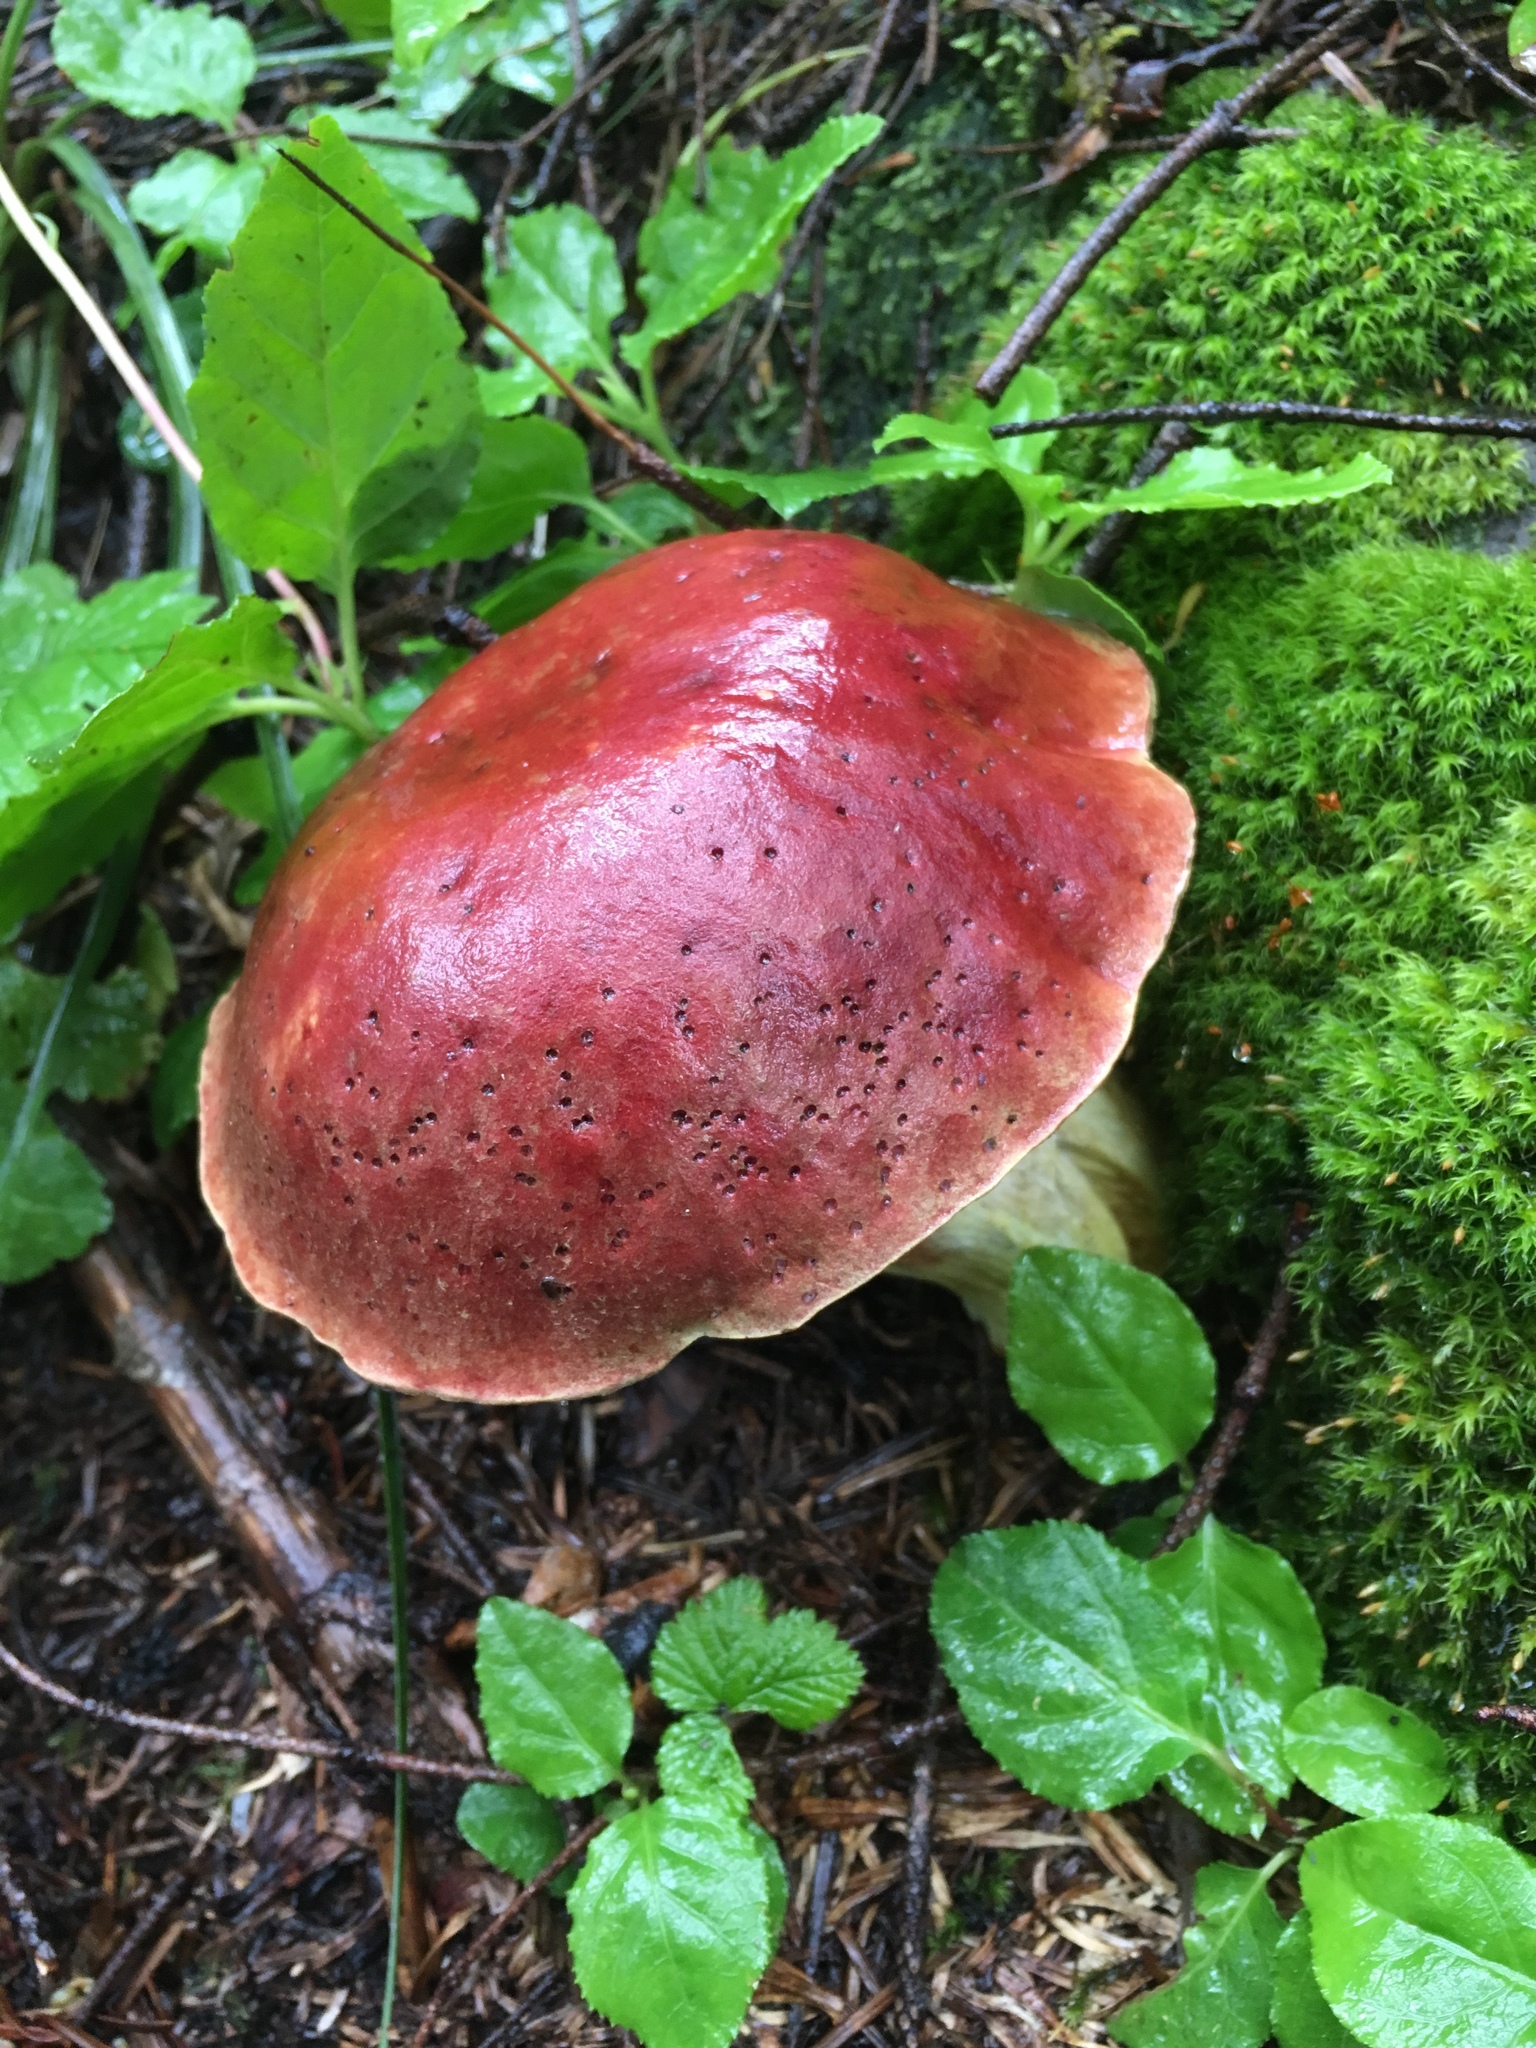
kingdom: Fungi
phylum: Basidiomycota
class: Agaricomycetes
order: Boletales
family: Boletaceae
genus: Boletus
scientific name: Boletus smithii
